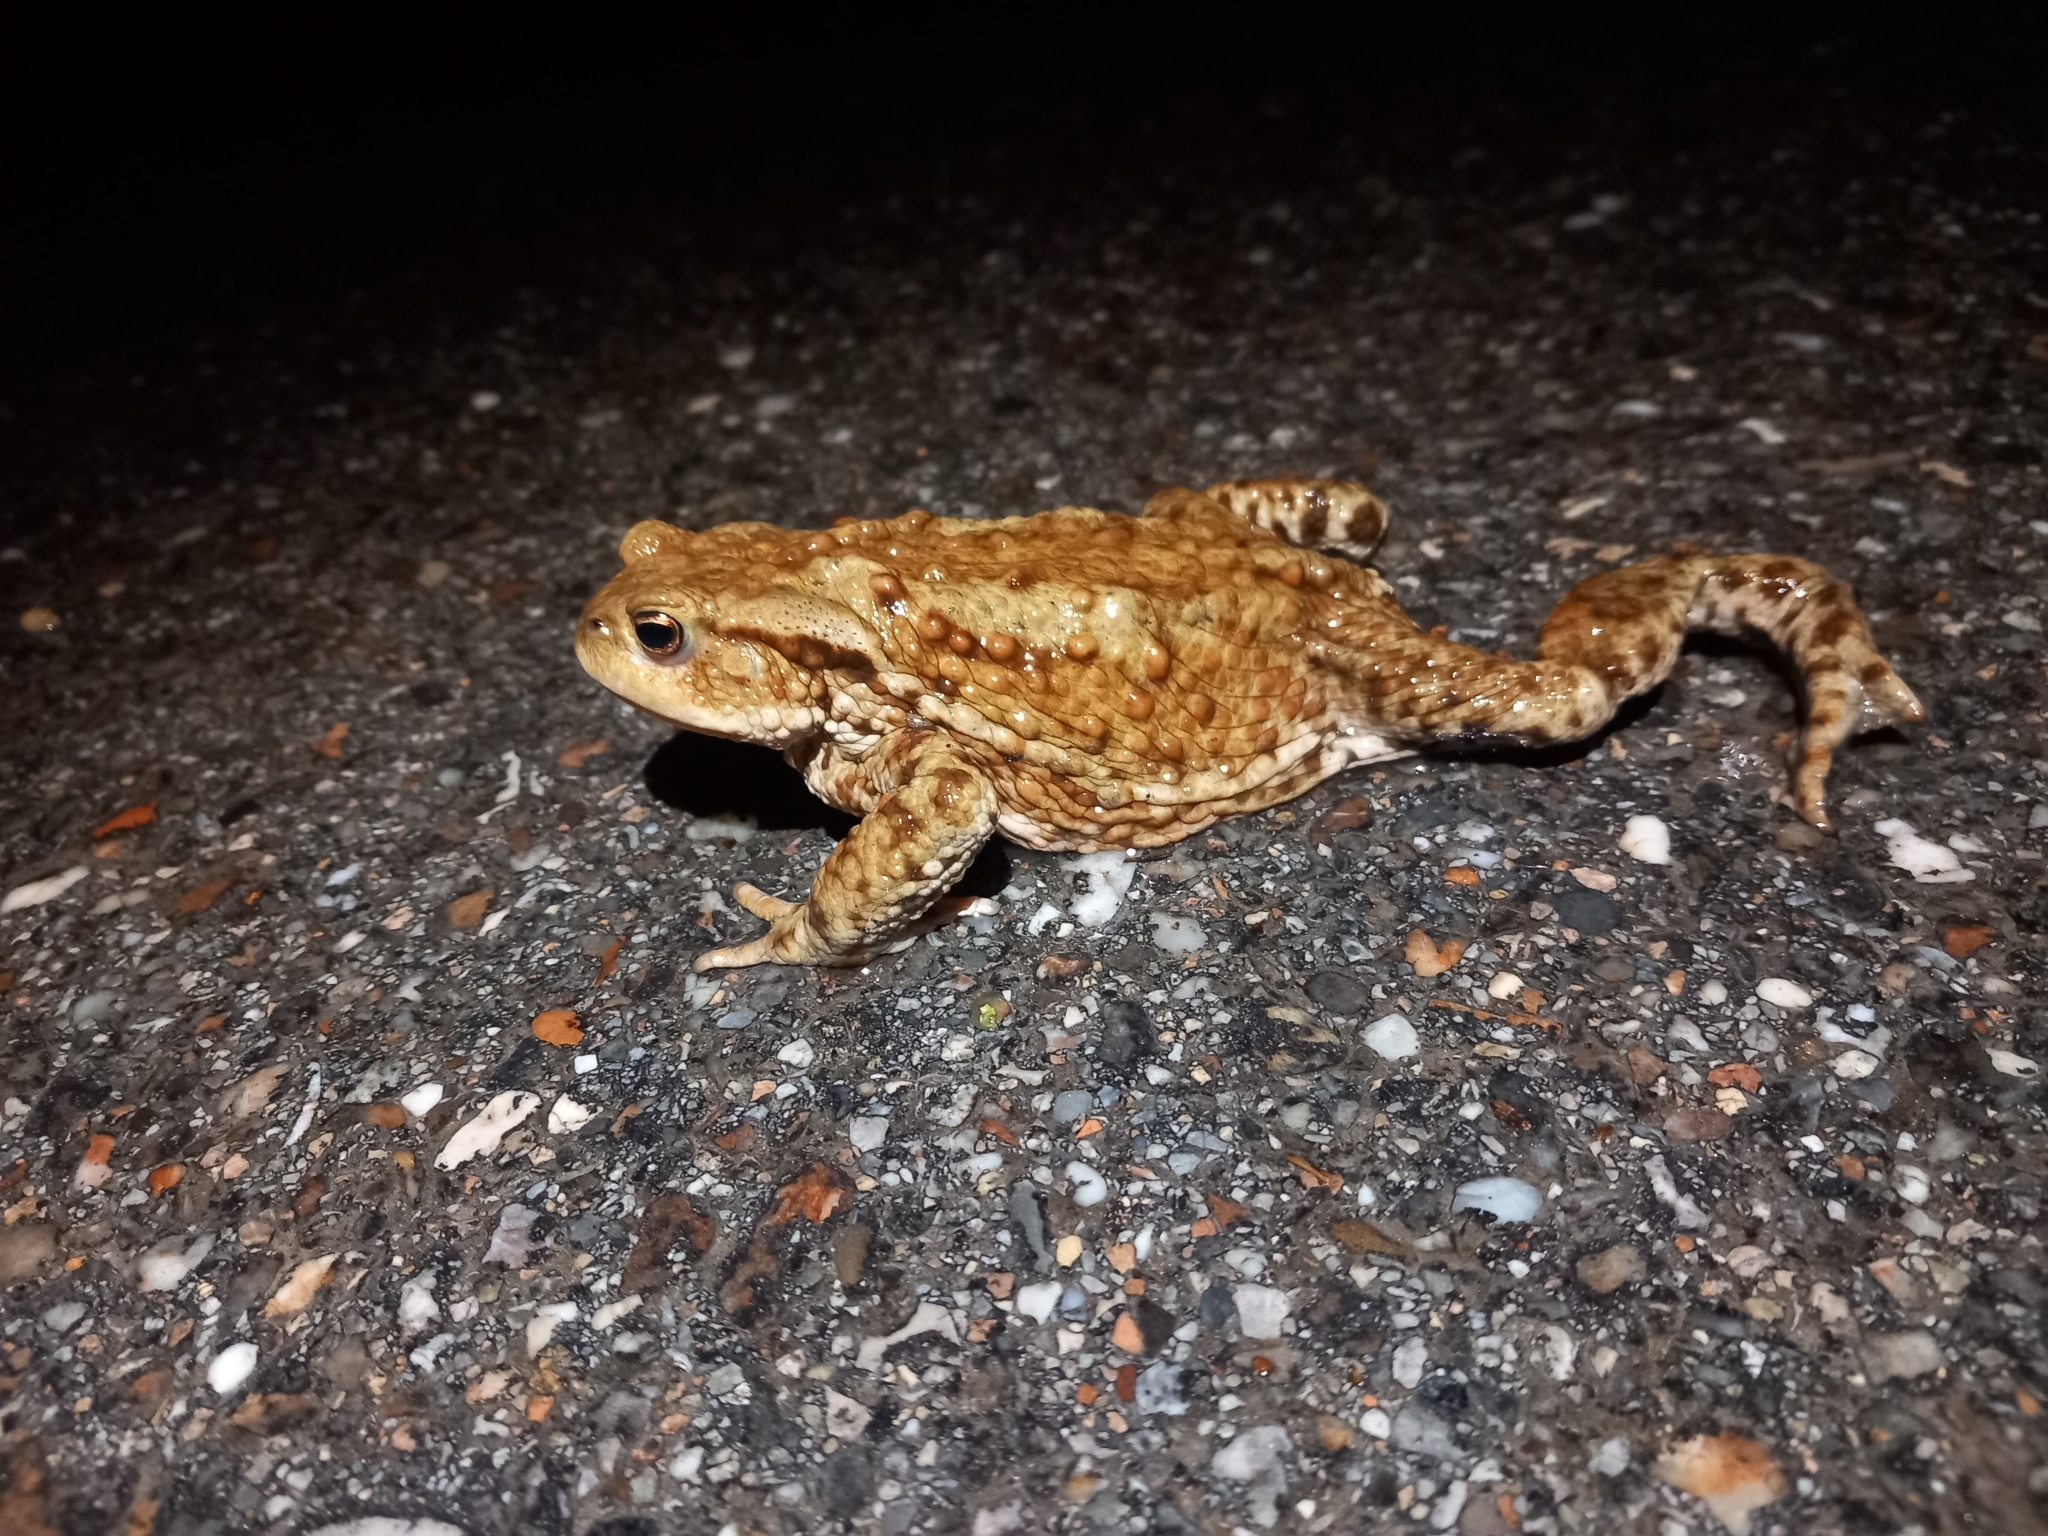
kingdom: Animalia
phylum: Chordata
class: Amphibia
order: Anura
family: Bufonidae
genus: Bufo
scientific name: Bufo bufo
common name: Common toad
